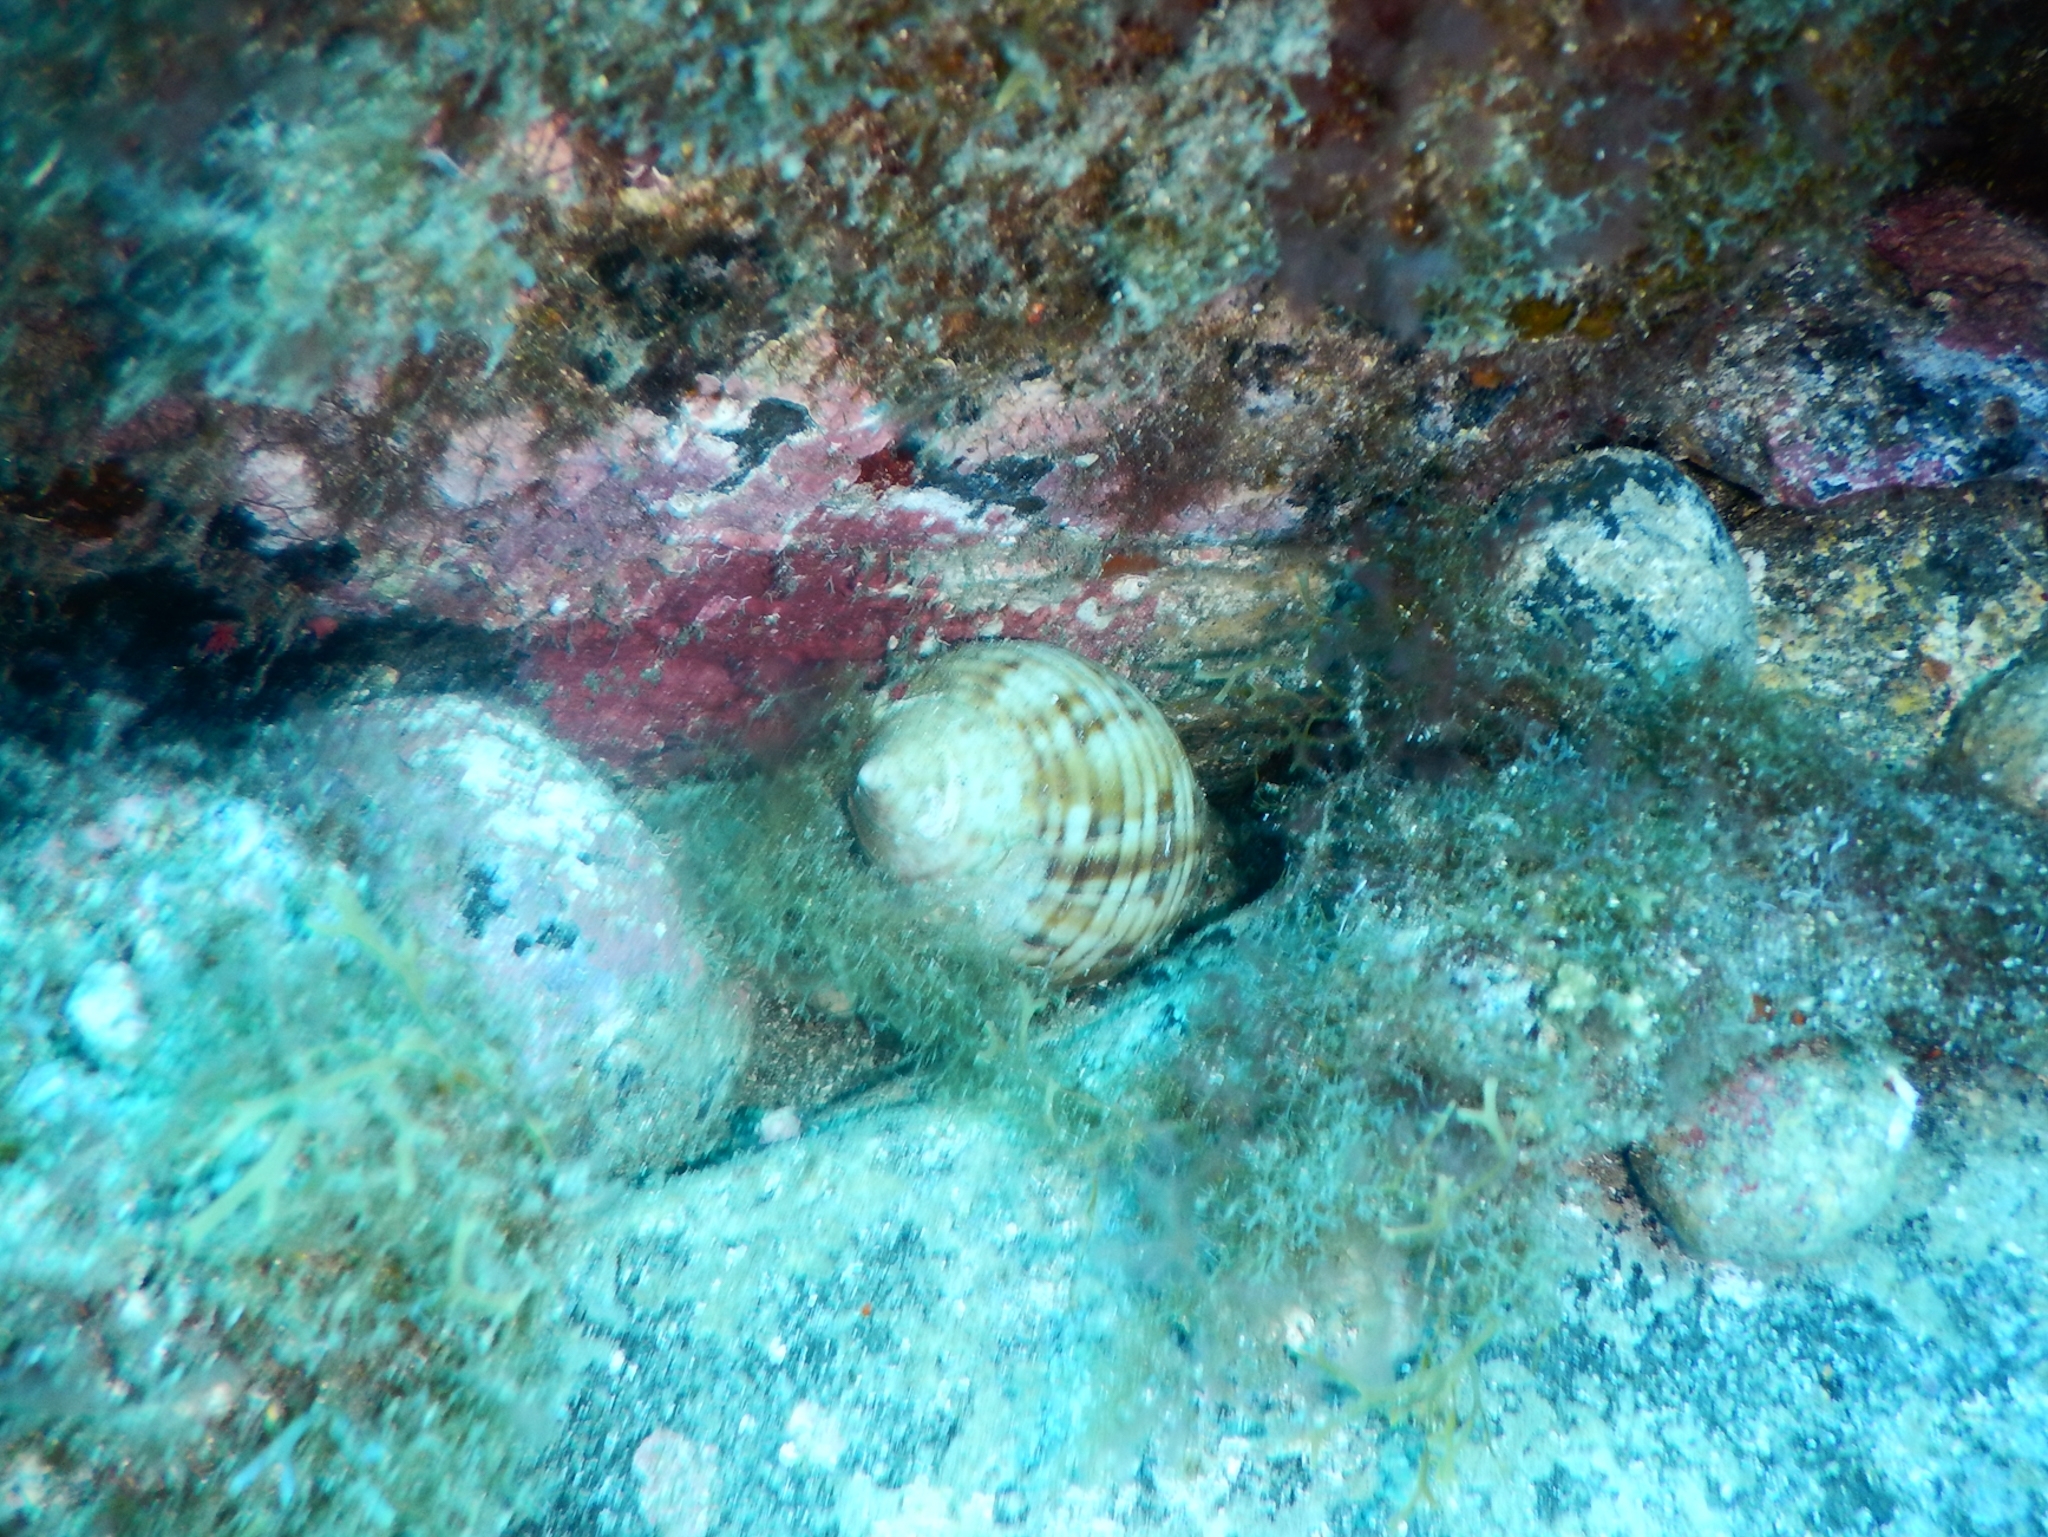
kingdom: Animalia
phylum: Mollusca
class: Gastropoda
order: Littorinimorpha
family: Cassidae
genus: Semicassis
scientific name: Semicassis undulata
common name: Mediterranean bonnet
